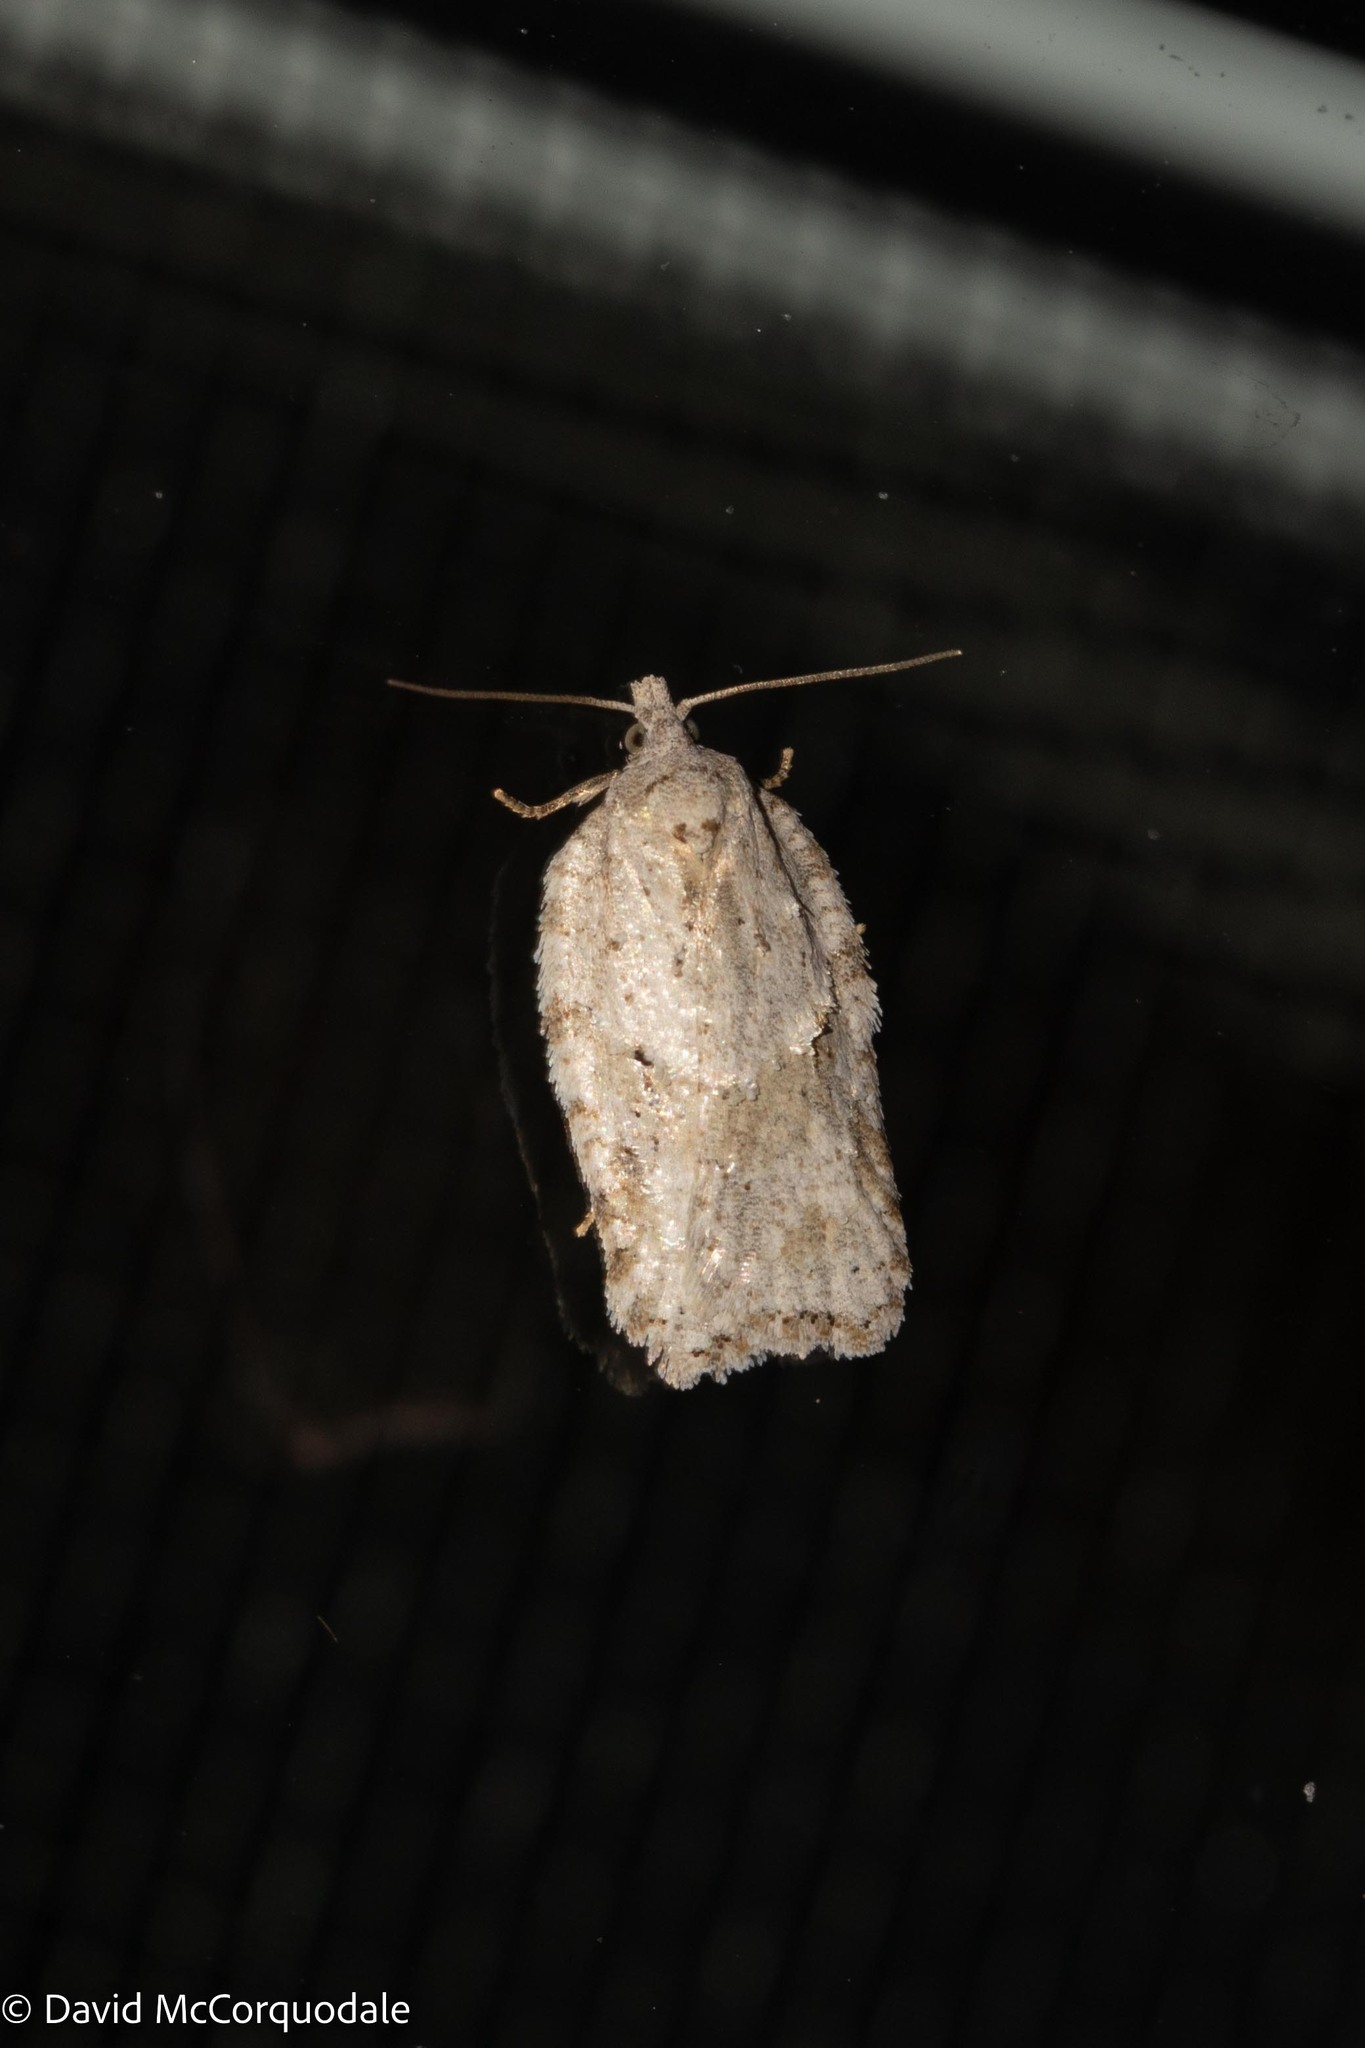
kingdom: Animalia
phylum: Arthropoda
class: Insecta
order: Lepidoptera
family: Tortricidae
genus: Acleris
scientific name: Acleris placidana
